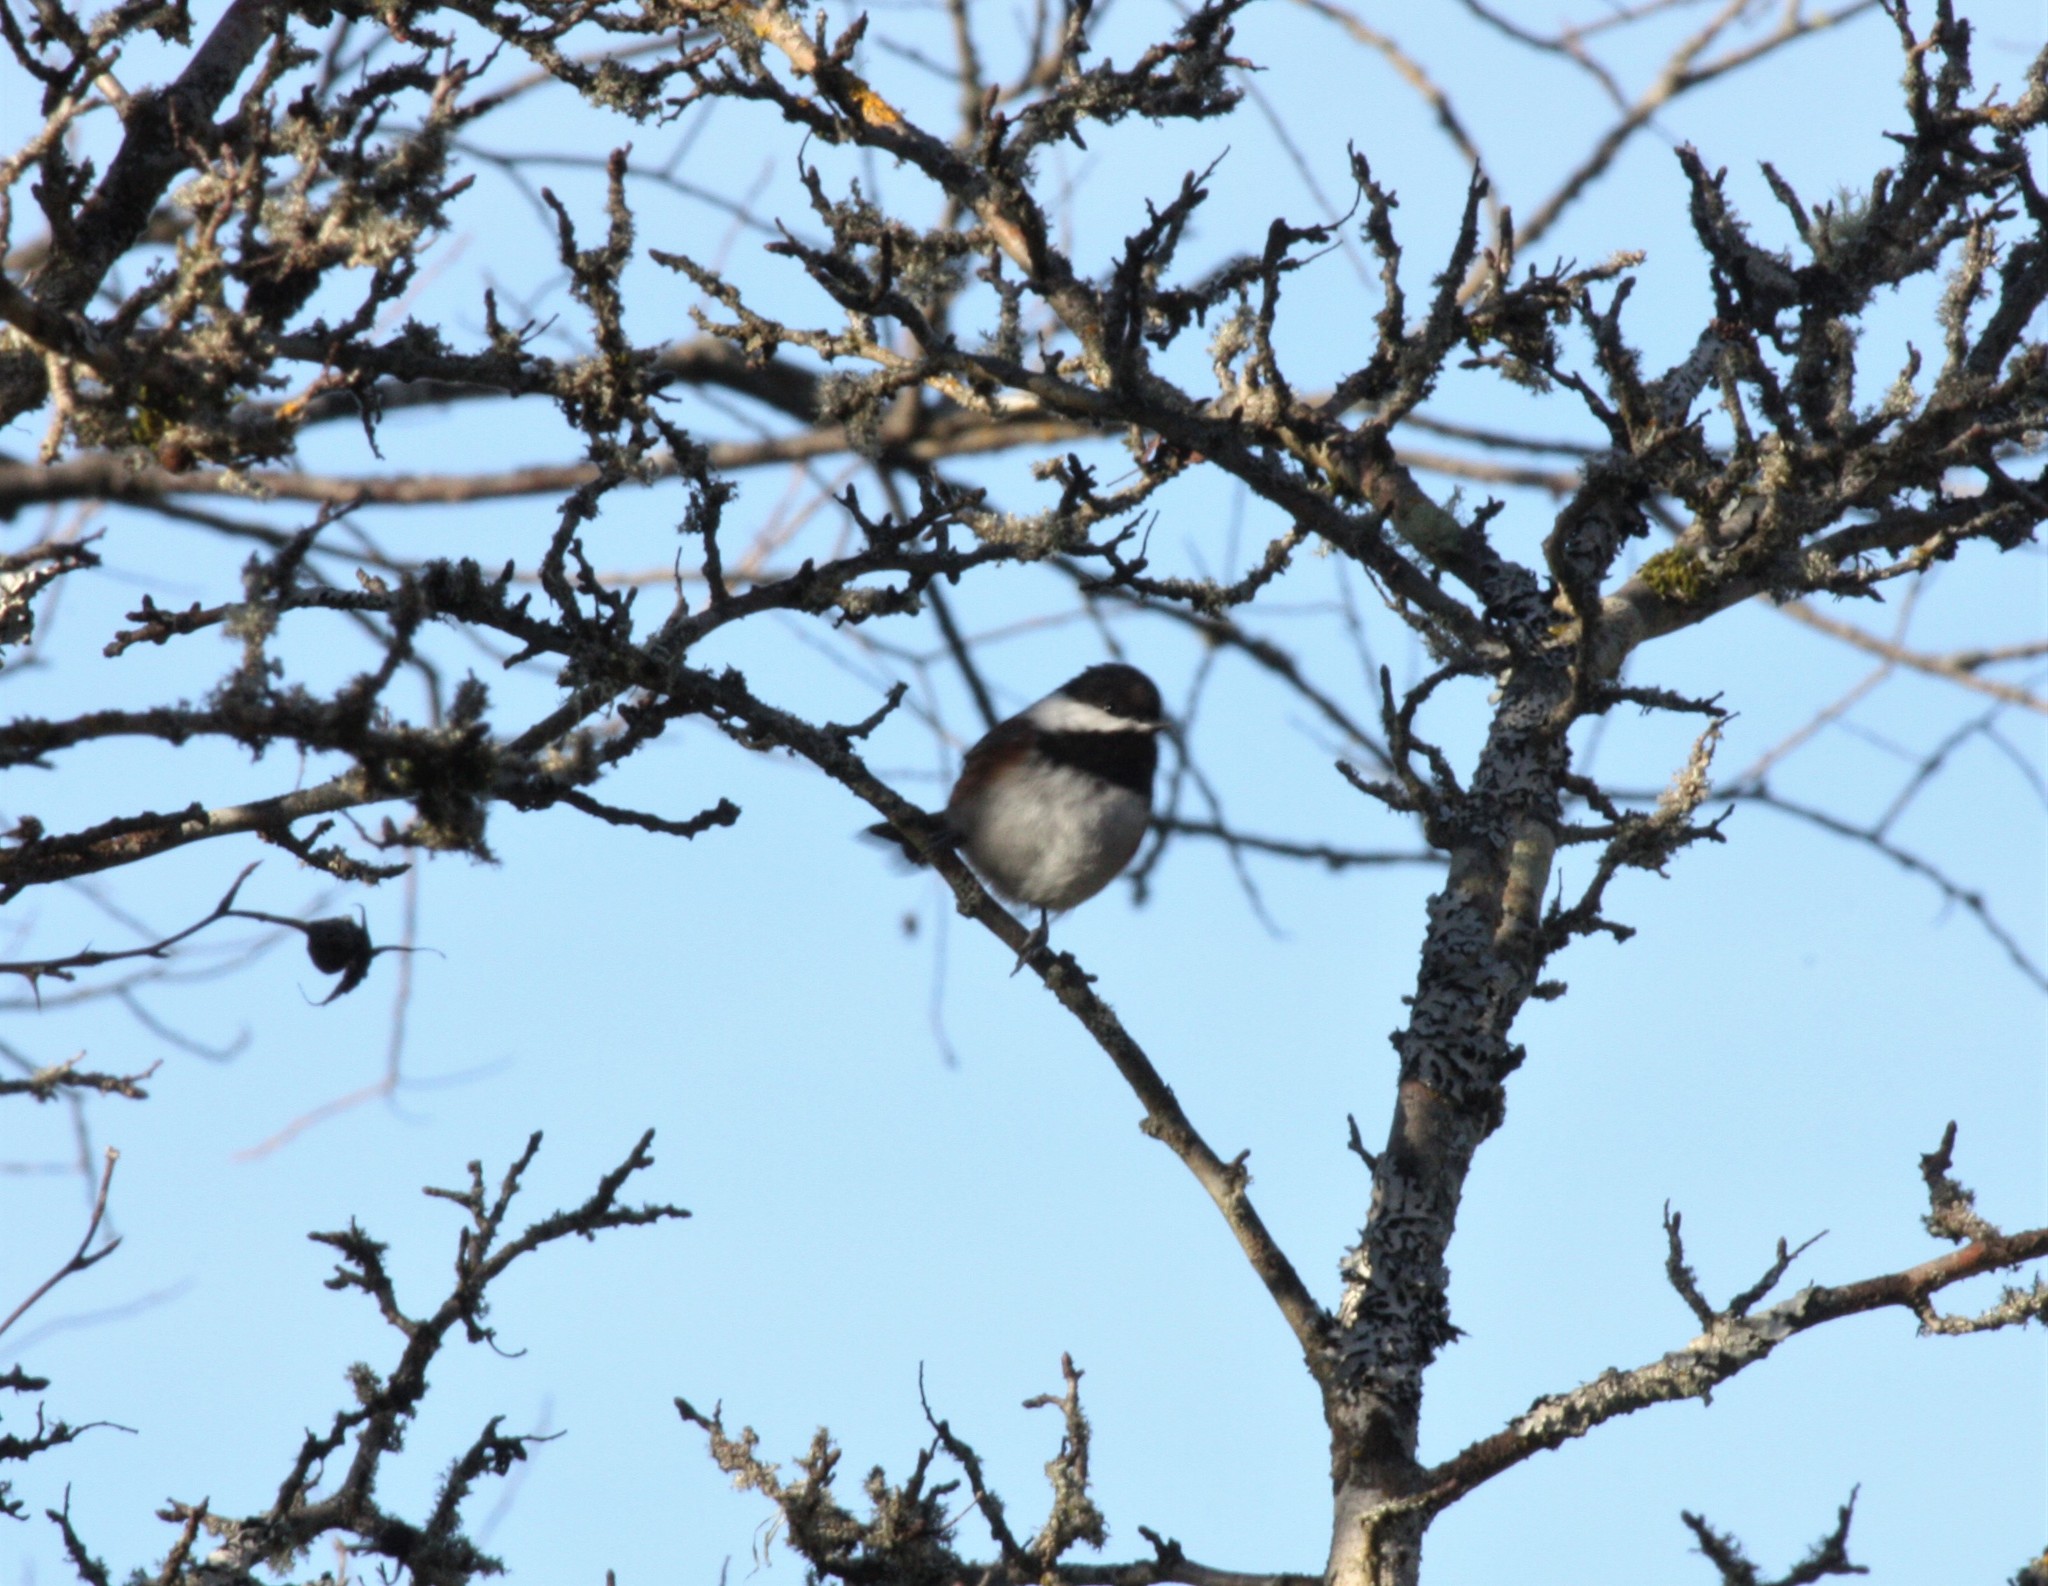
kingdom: Animalia
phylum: Chordata
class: Aves
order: Passeriformes
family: Paridae
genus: Poecile
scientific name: Poecile rufescens
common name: Chestnut-backed chickadee
